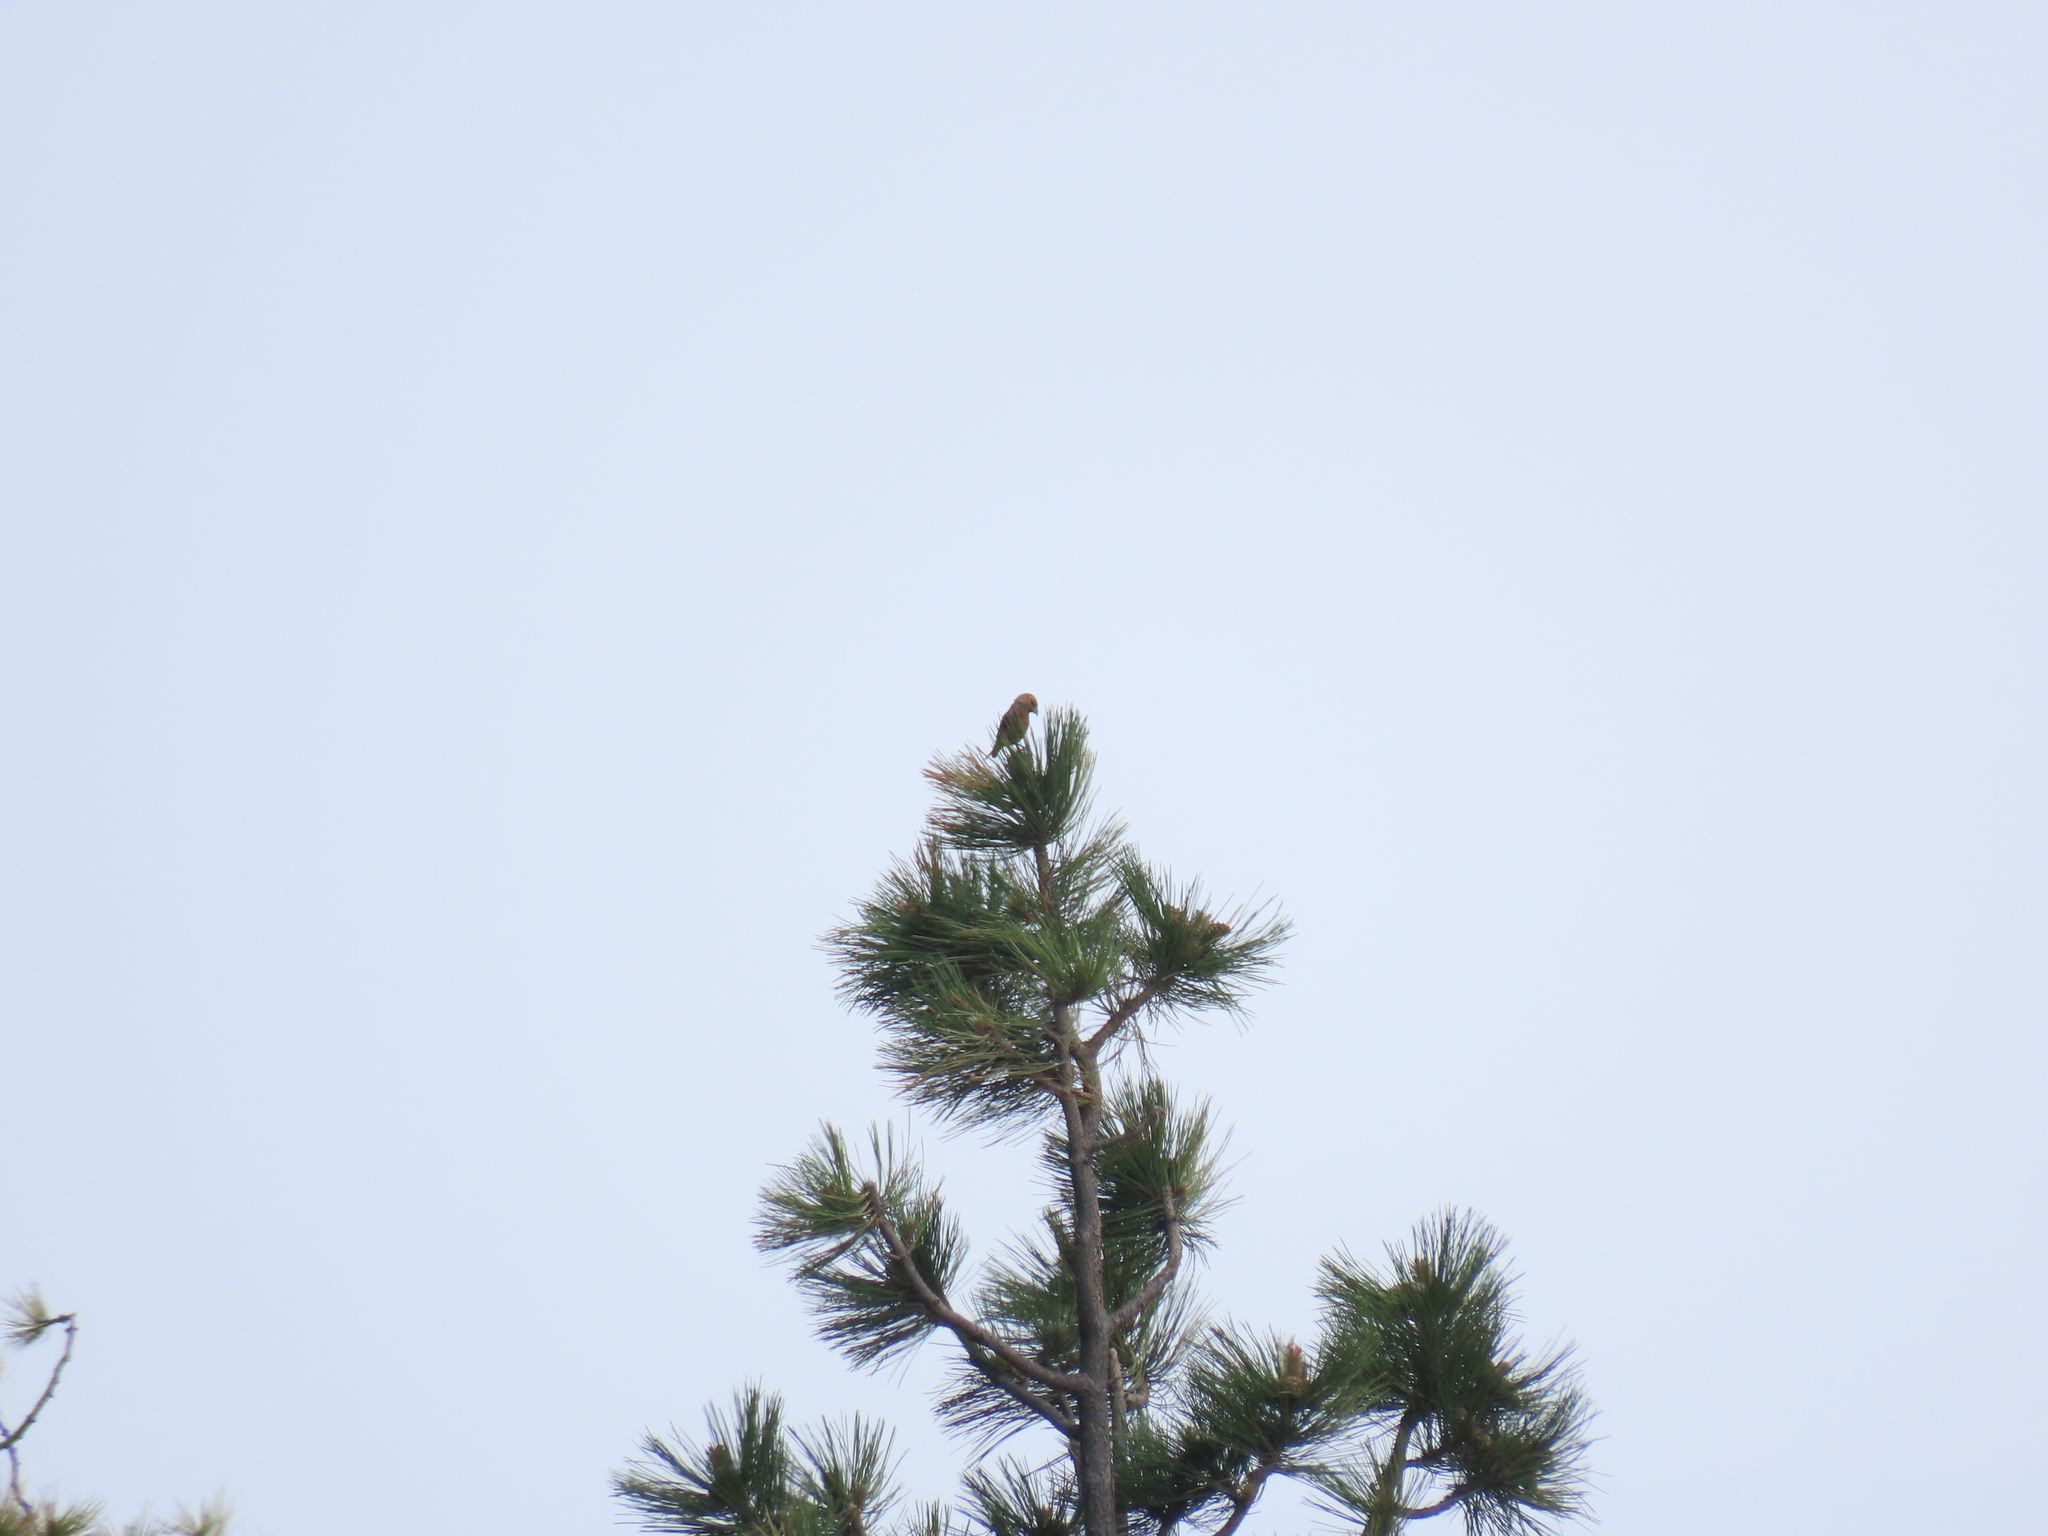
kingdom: Animalia
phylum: Chordata
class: Aves
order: Passeriformes
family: Fringillidae
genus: Loxia
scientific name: Loxia curvirostra
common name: Red crossbill
